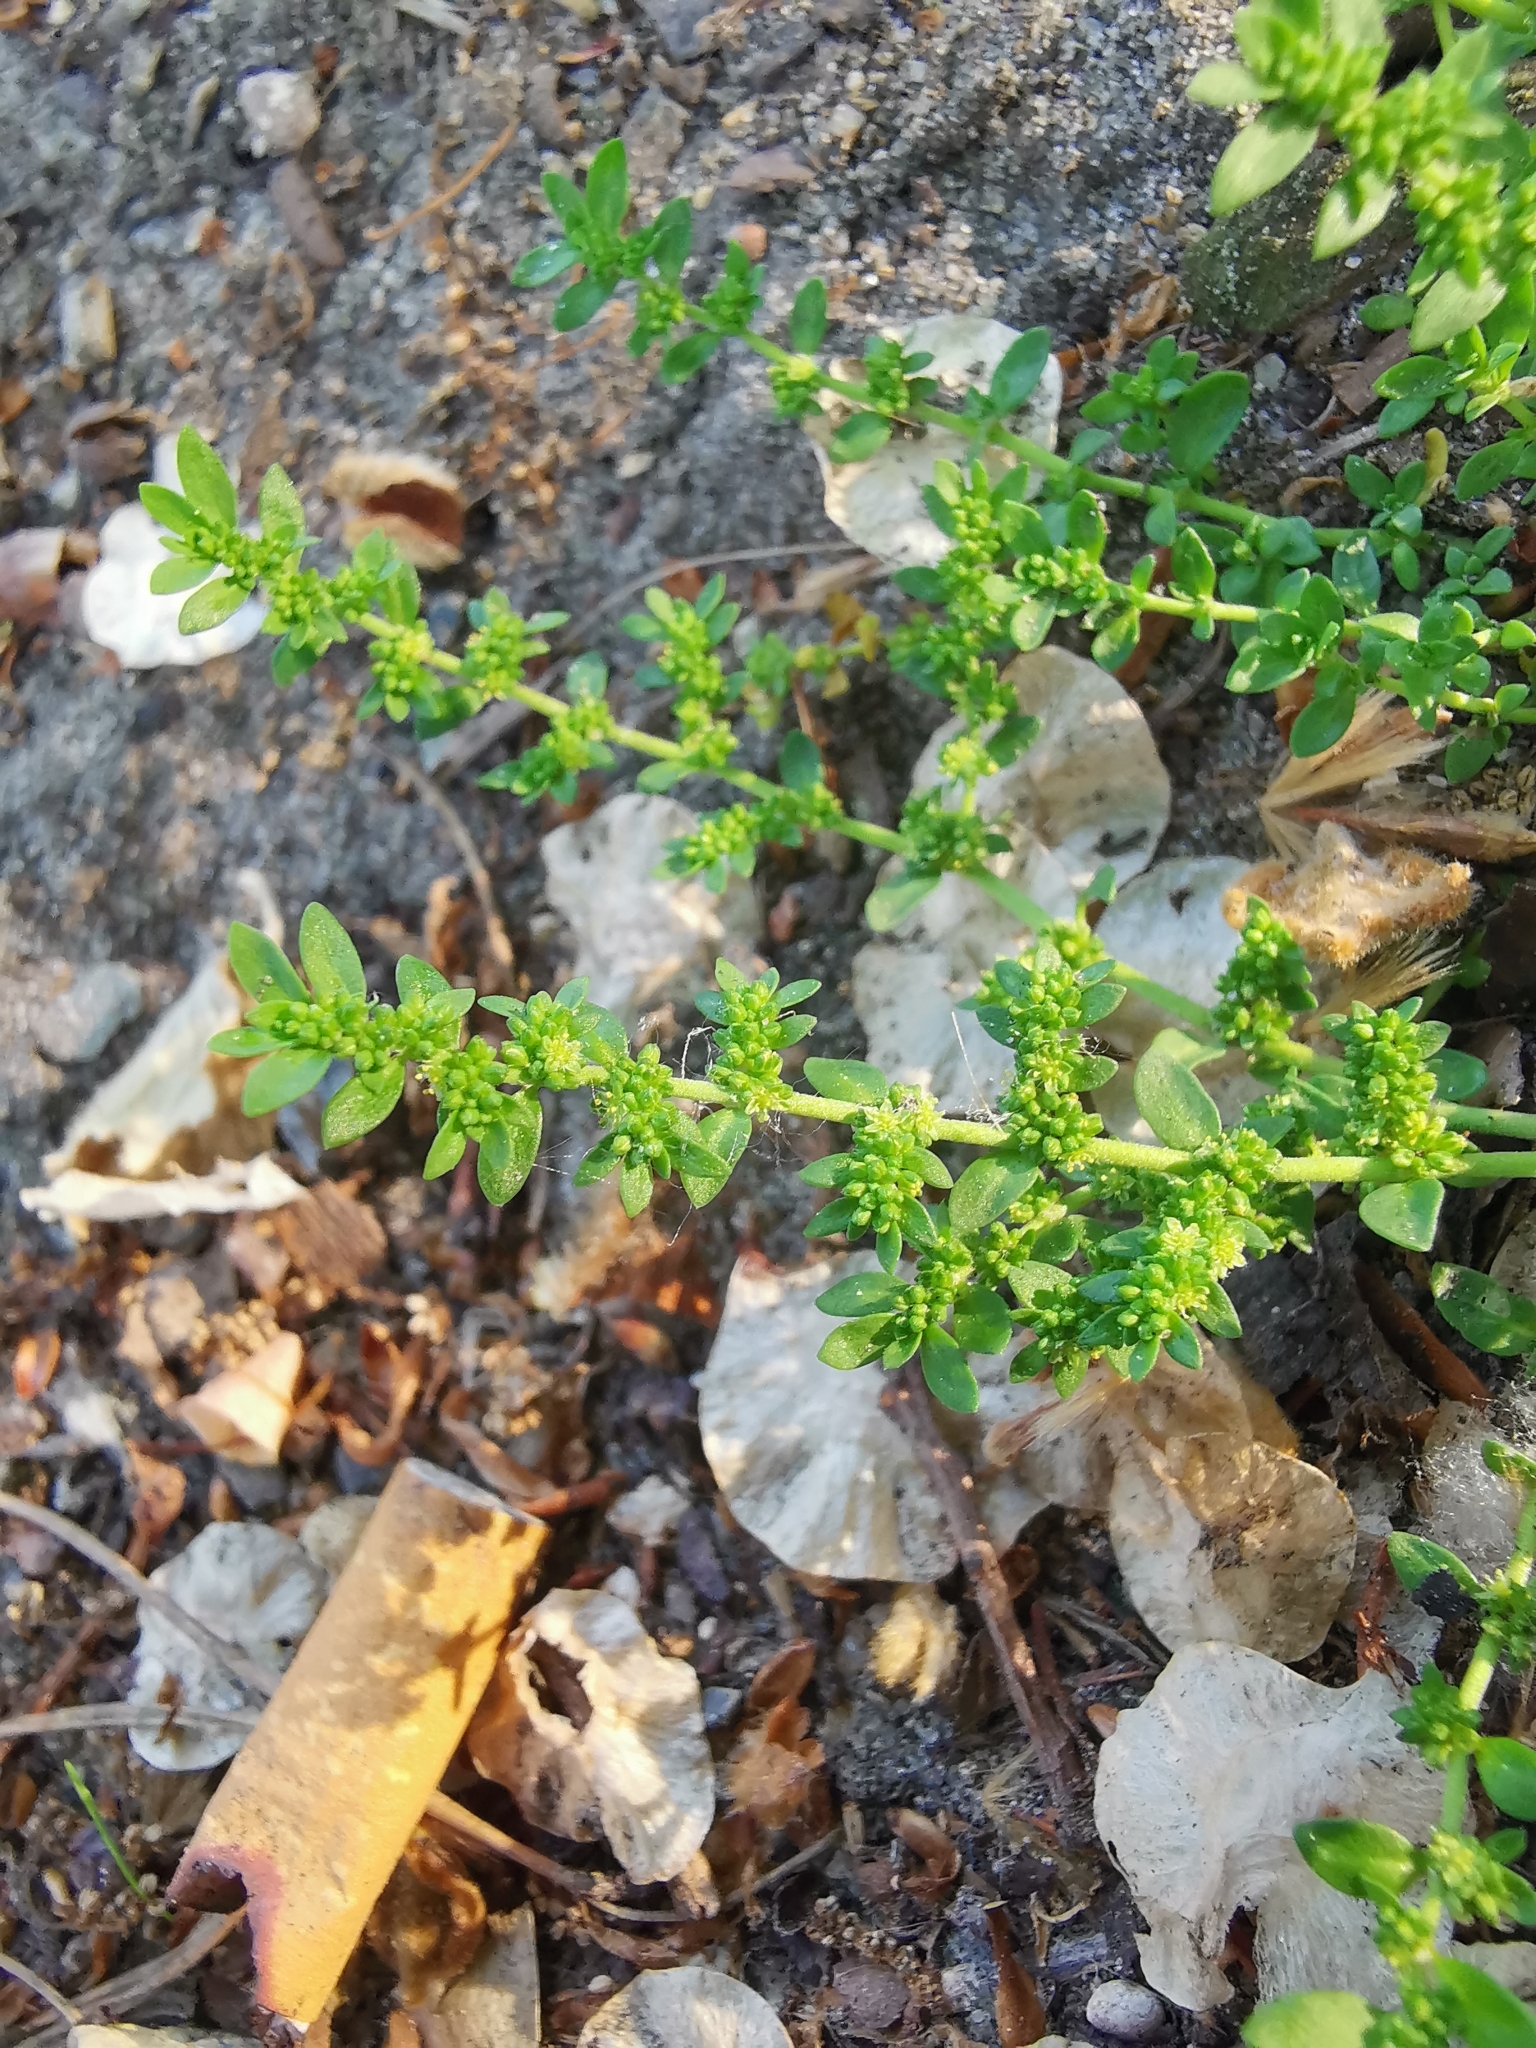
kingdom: Plantae
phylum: Tracheophyta
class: Magnoliopsida
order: Caryophyllales
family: Caryophyllaceae
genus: Herniaria
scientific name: Herniaria glabra
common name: Smooth rupturewort
